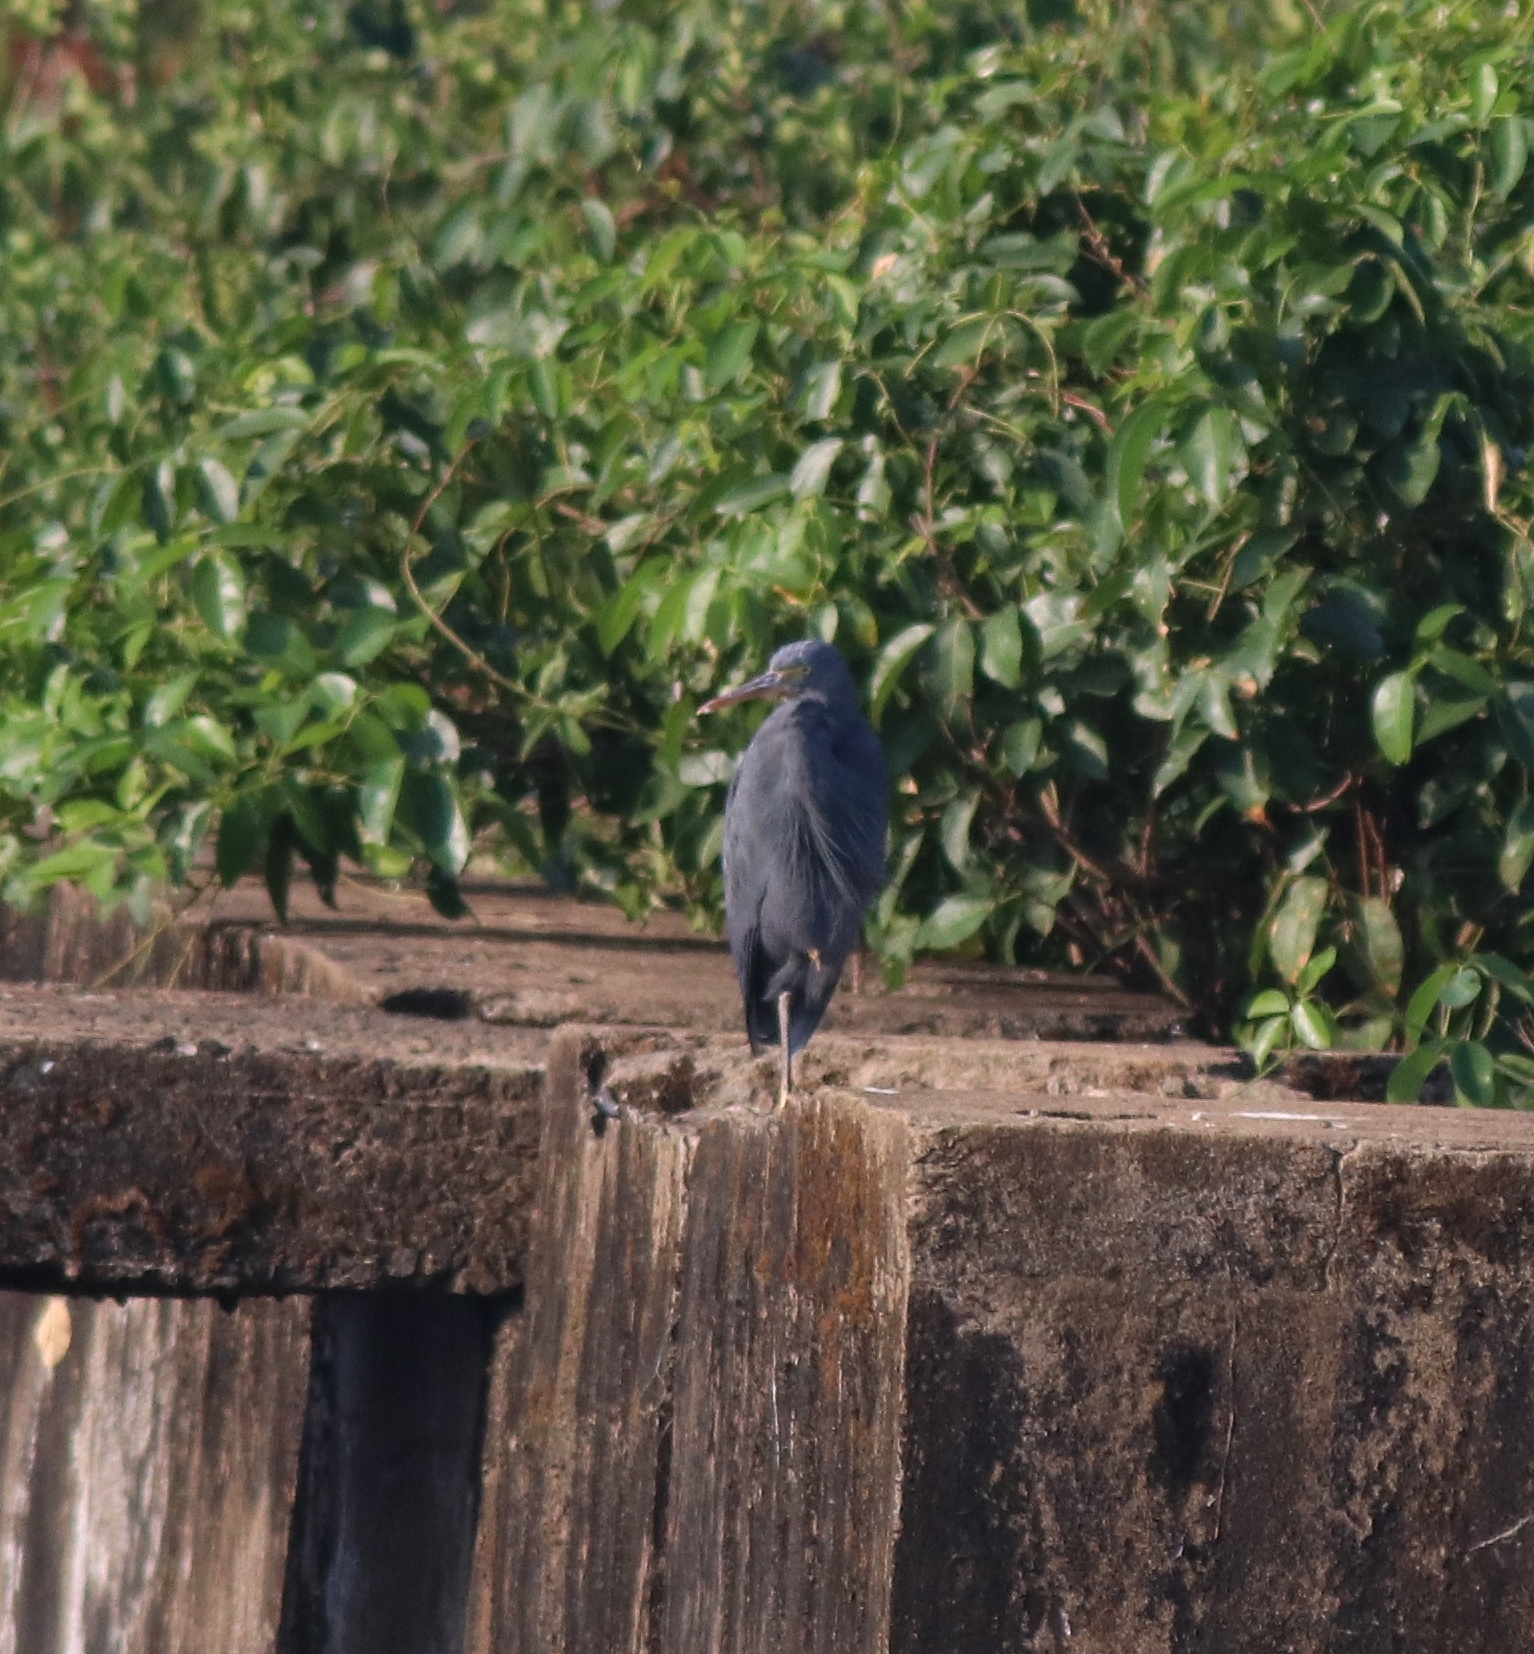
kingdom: Animalia
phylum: Chordata
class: Aves
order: Pelecaniformes
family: Ardeidae
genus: Egretta
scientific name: Egretta gularis
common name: Western reef-heron
